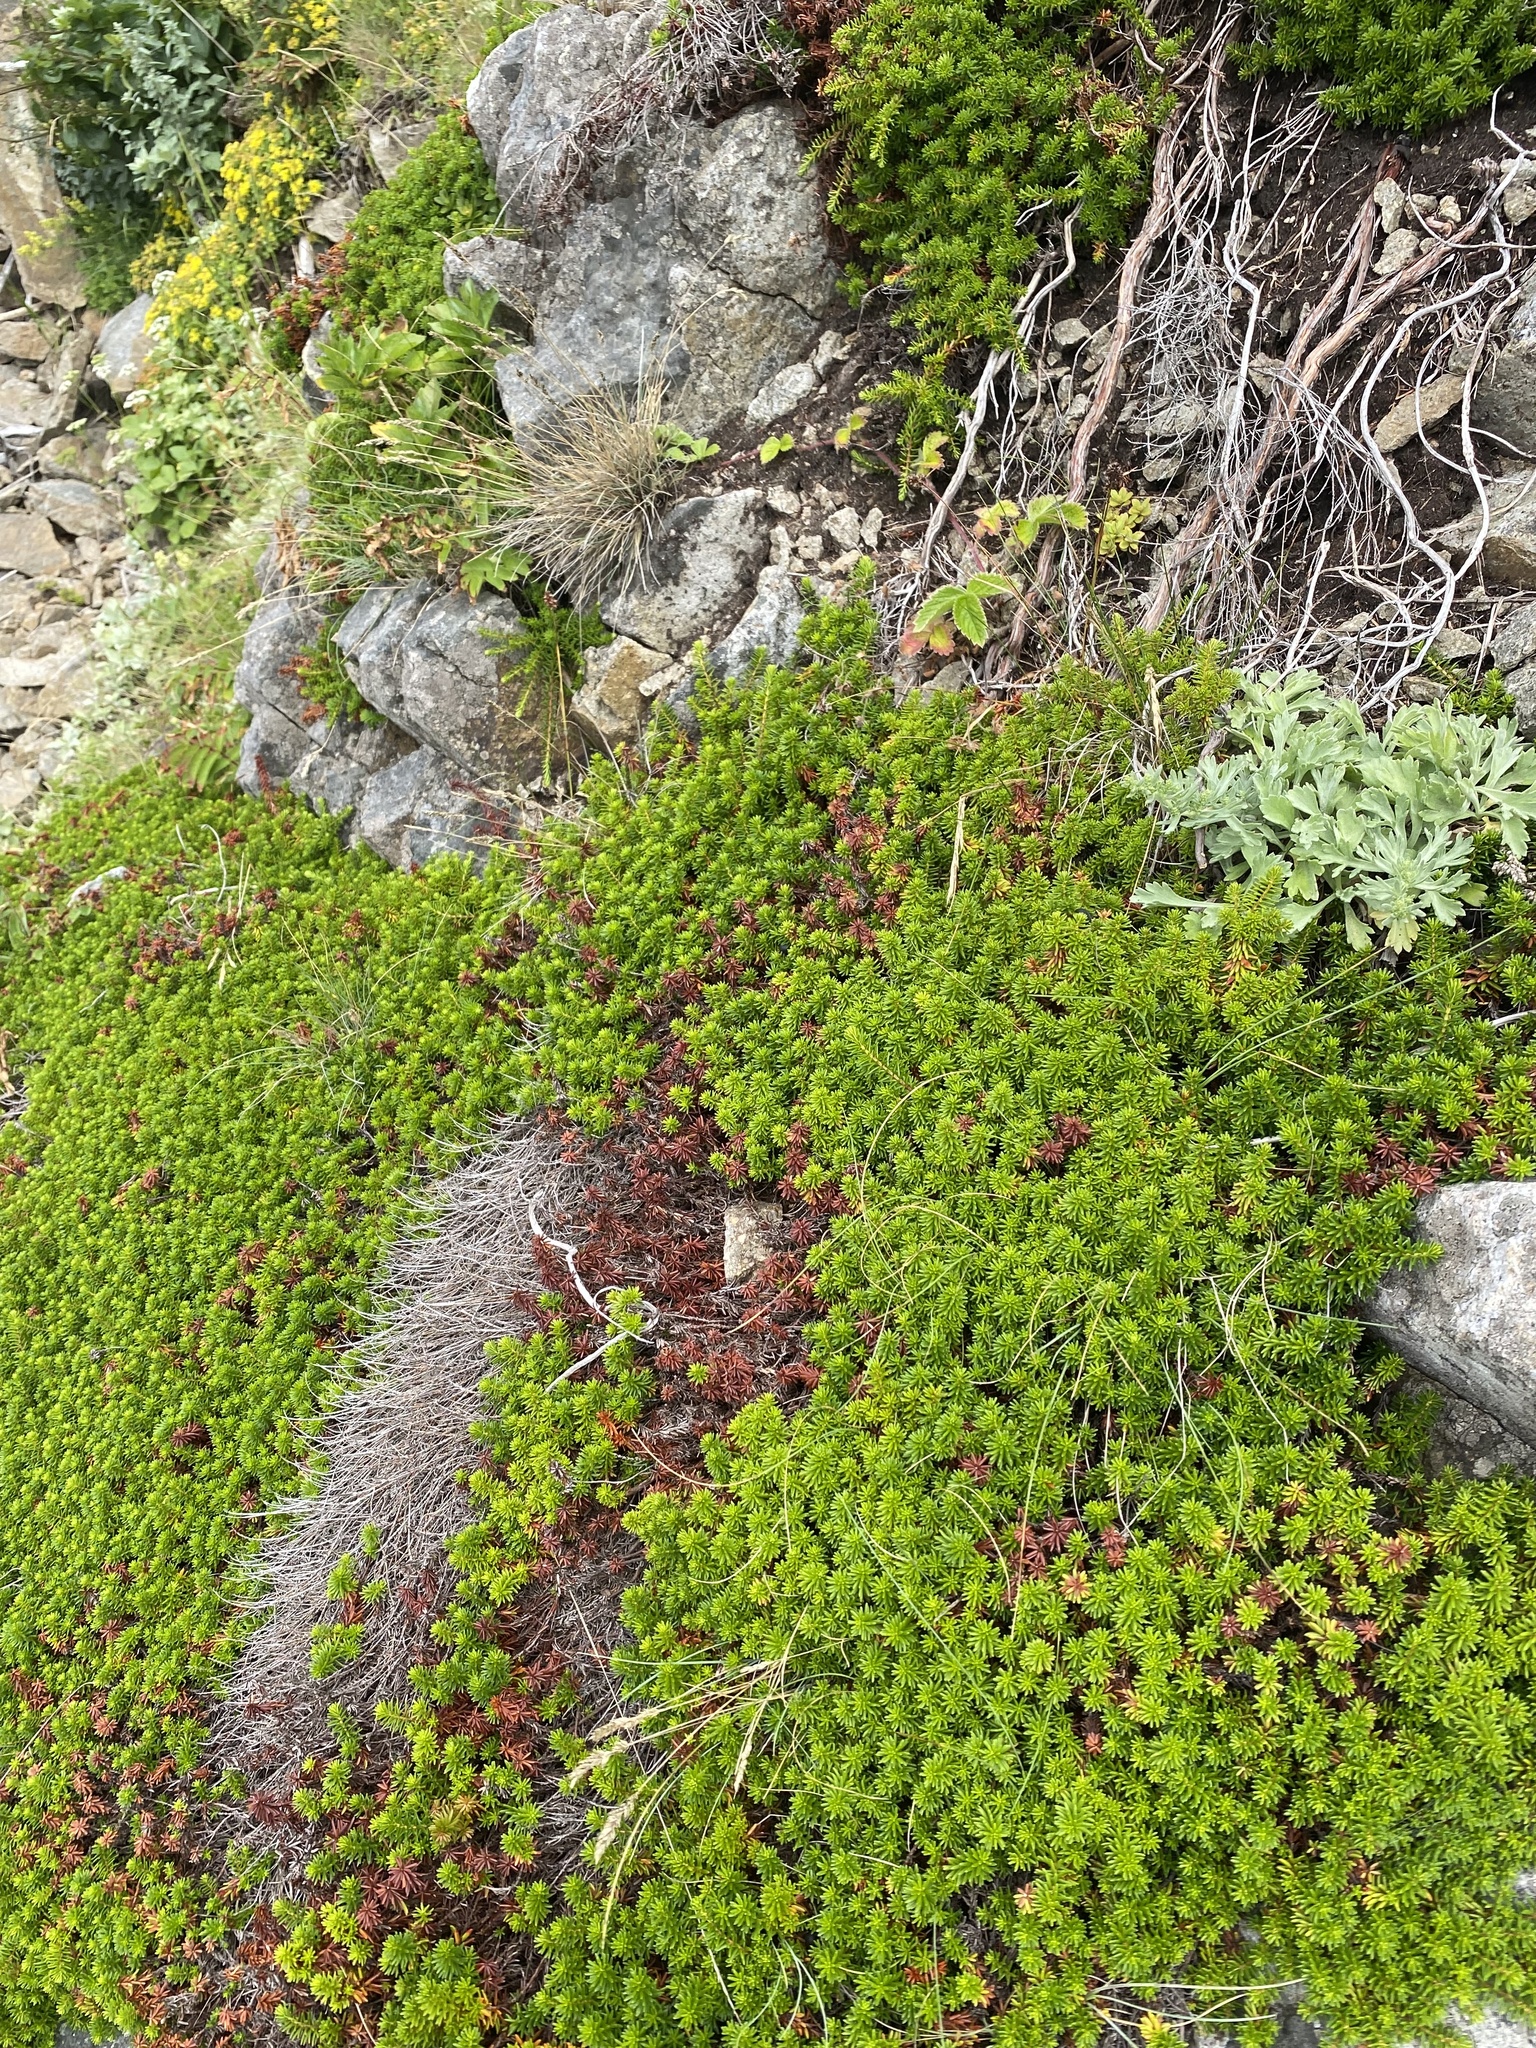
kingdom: Plantae
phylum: Tracheophyta
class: Magnoliopsida
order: Ericales
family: Ericaceae
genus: Empetrum
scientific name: Empetrum nigrum
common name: Black crowberry
